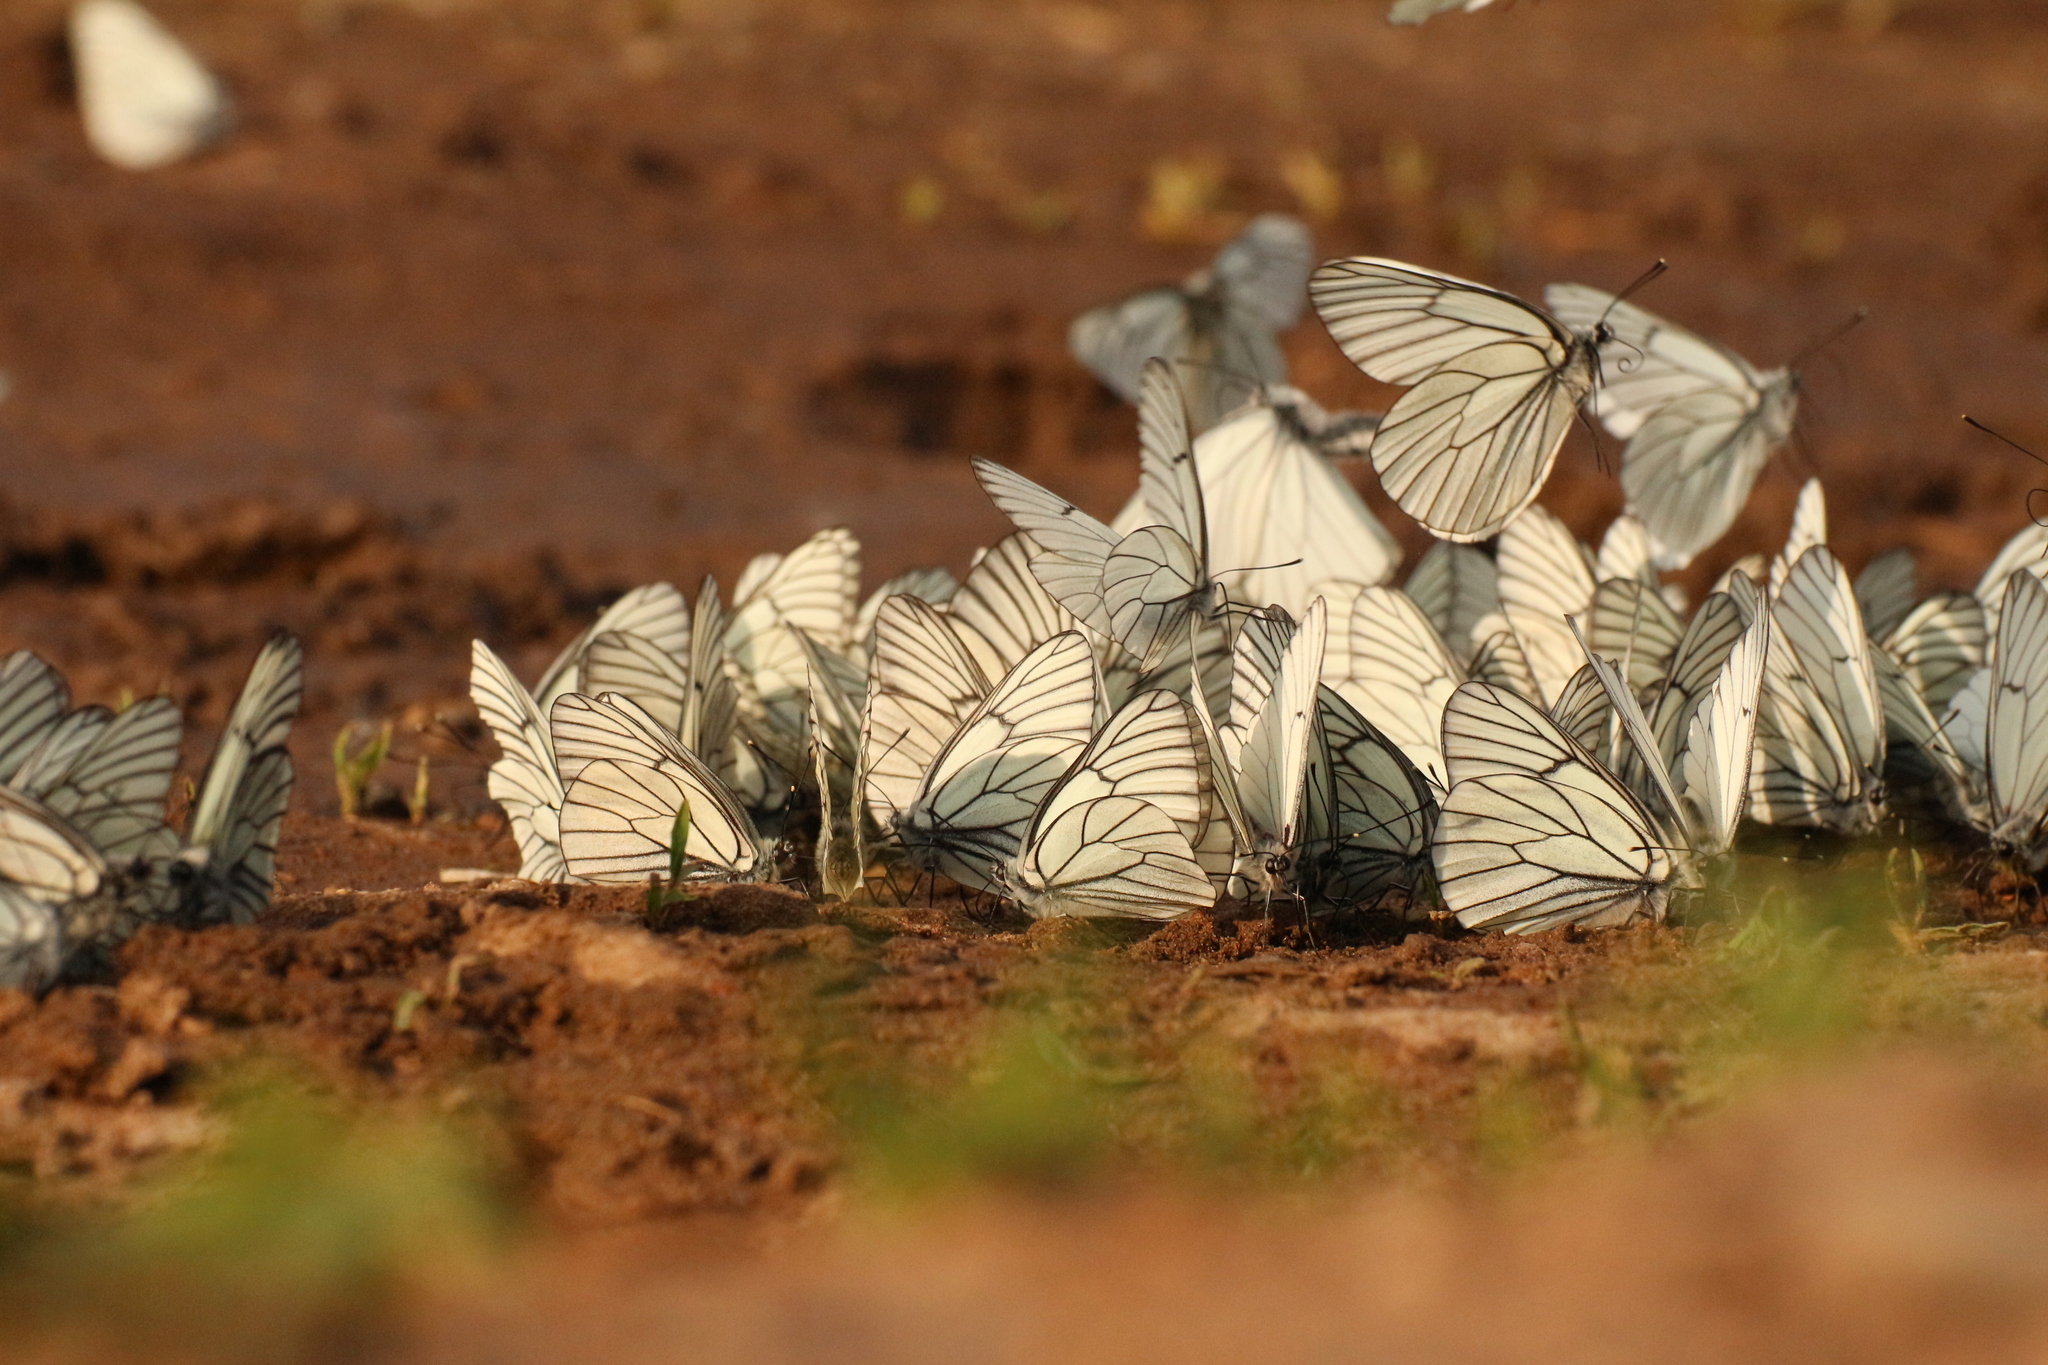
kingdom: Animalia
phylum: Arthropoda
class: Insecta
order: Lepidoptera
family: Pieridae
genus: Aporia
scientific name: Aporia crataegi
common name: Black-veined white
